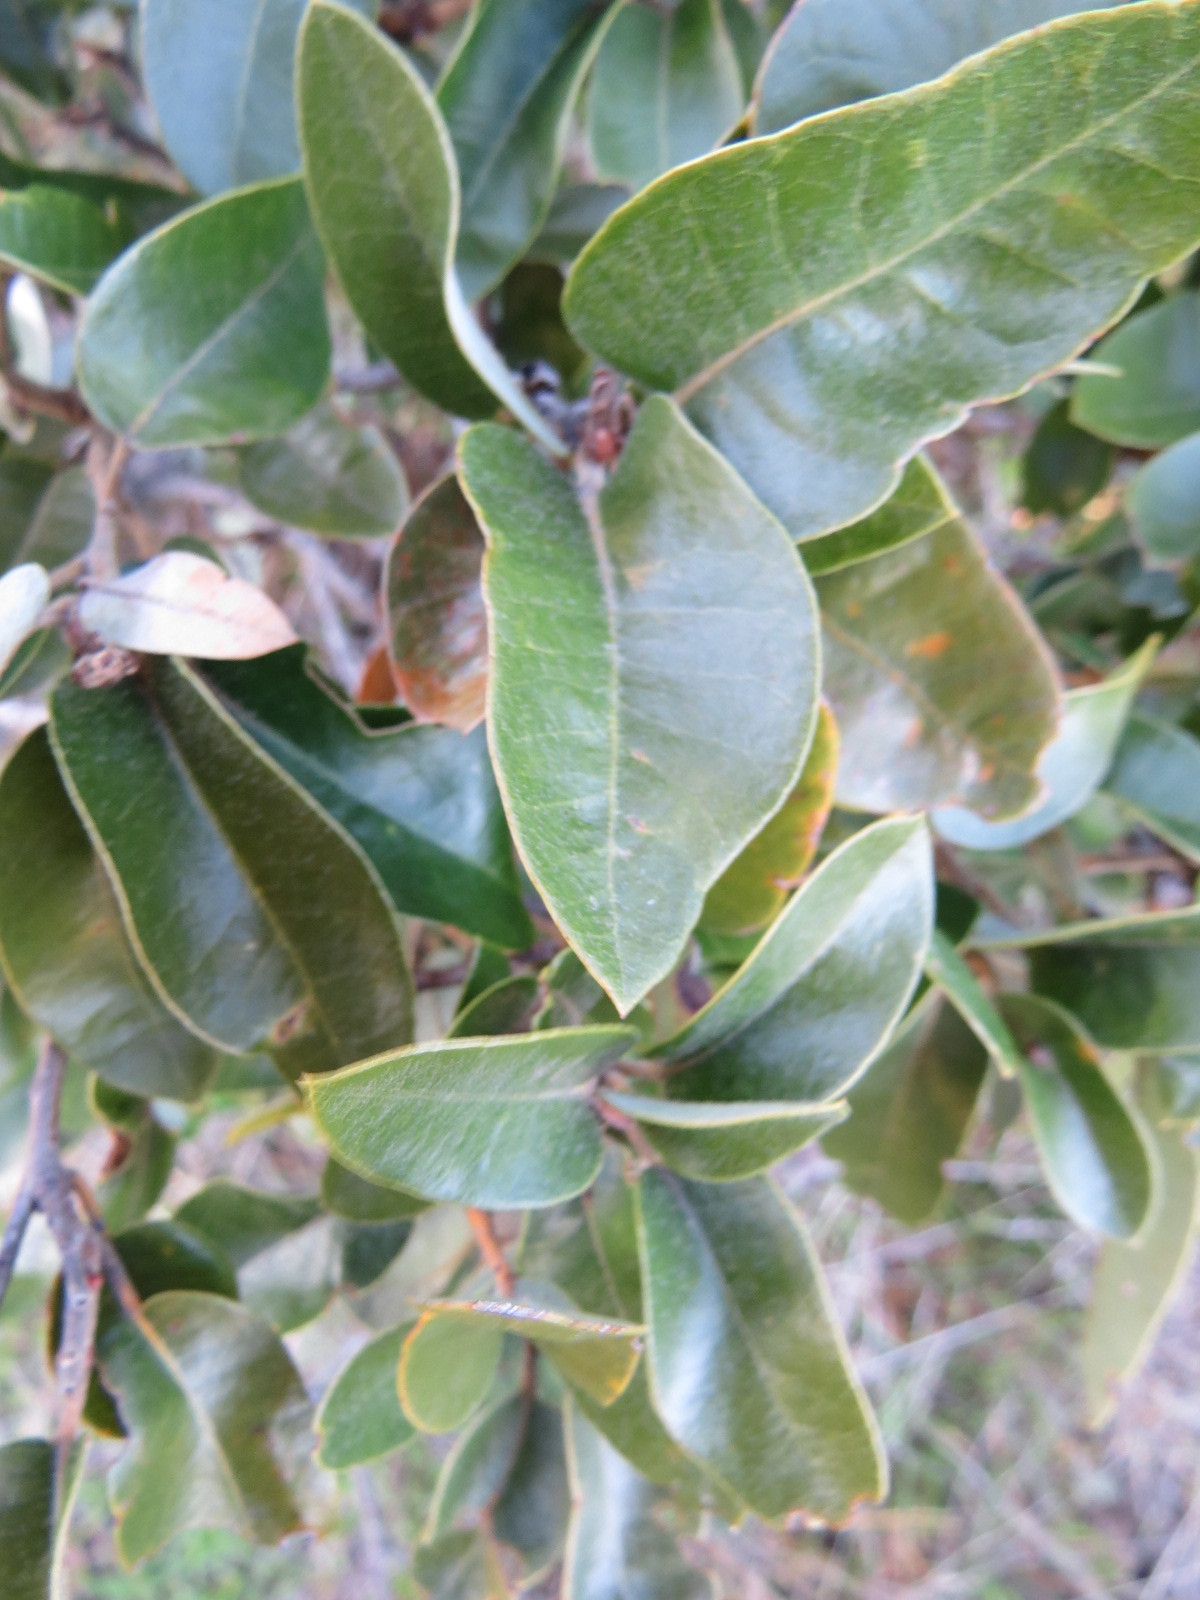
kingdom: Plantae
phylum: Tracheophyta
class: Magnoliopsida
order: Fagales
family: Fagaceae
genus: Quercus
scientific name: Quercus chrysolepis
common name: Canyon live oak
